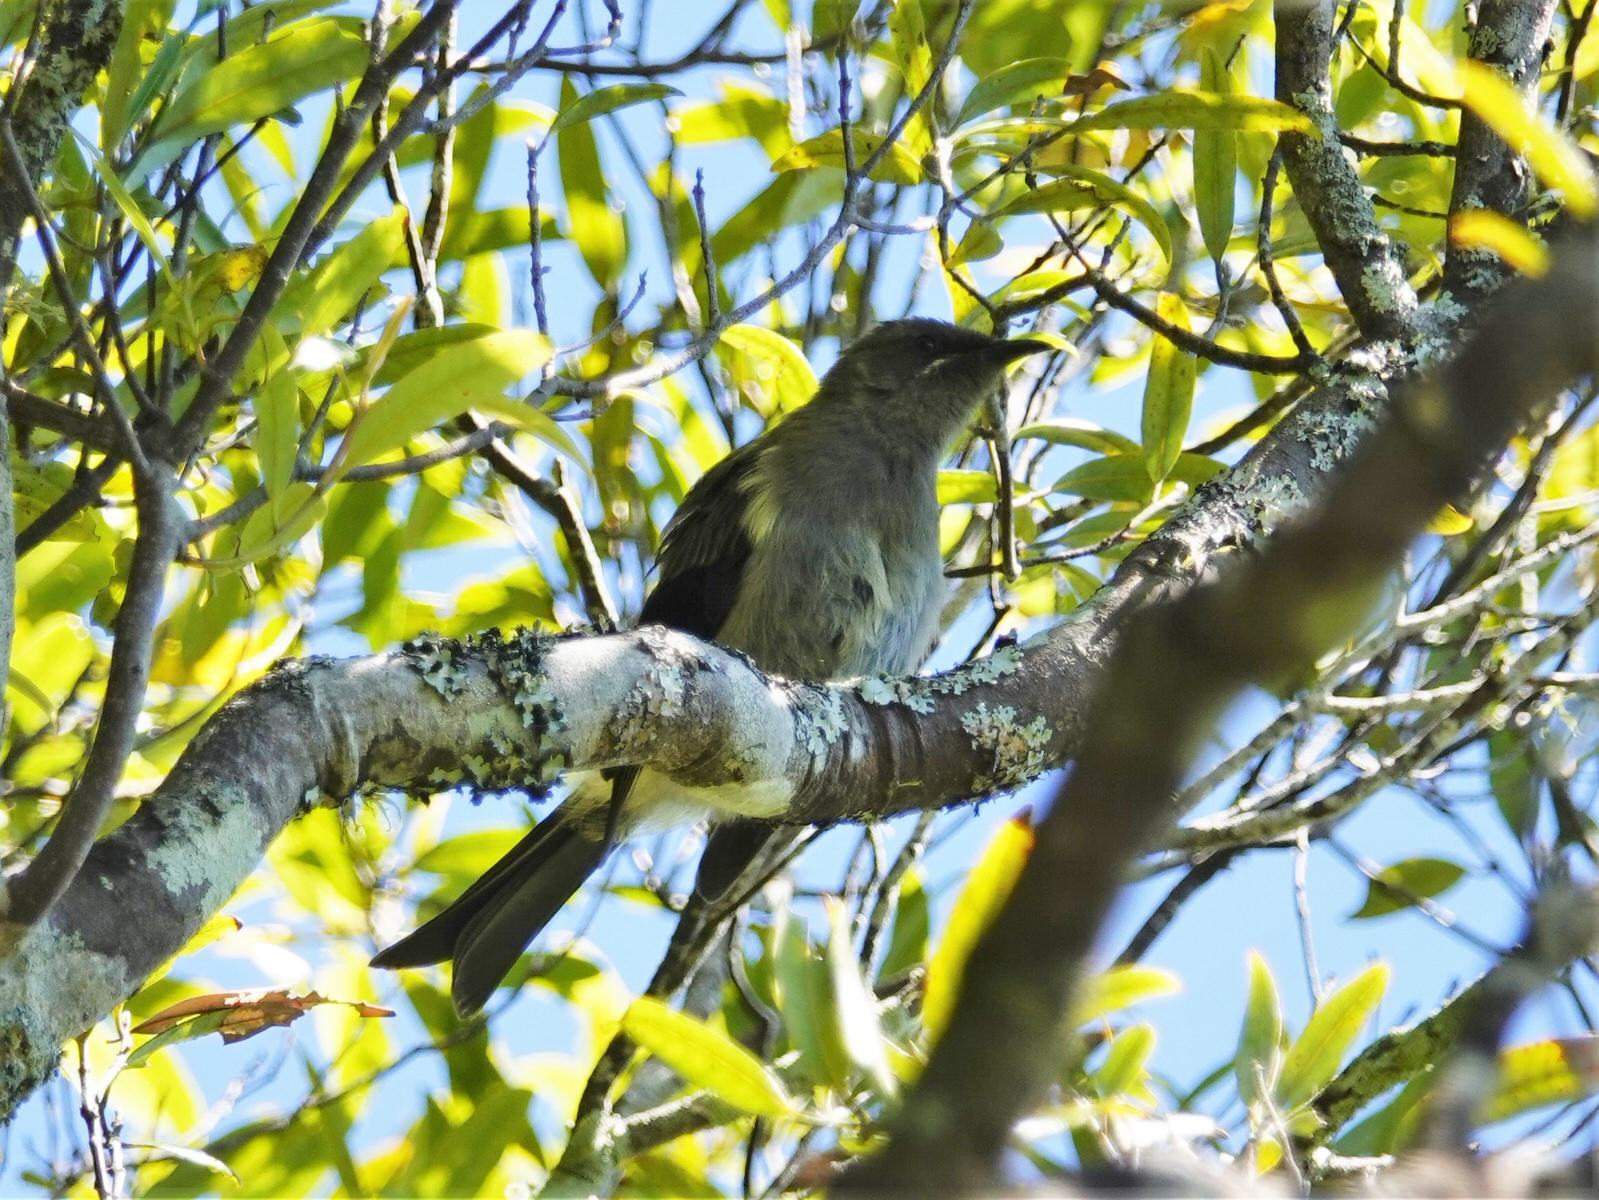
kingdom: Animalia
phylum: Chordata
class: Aves
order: Passeriformes
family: Meliphagidae
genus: Anthornis
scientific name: Anthornis melanura
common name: New zealand bellbird
